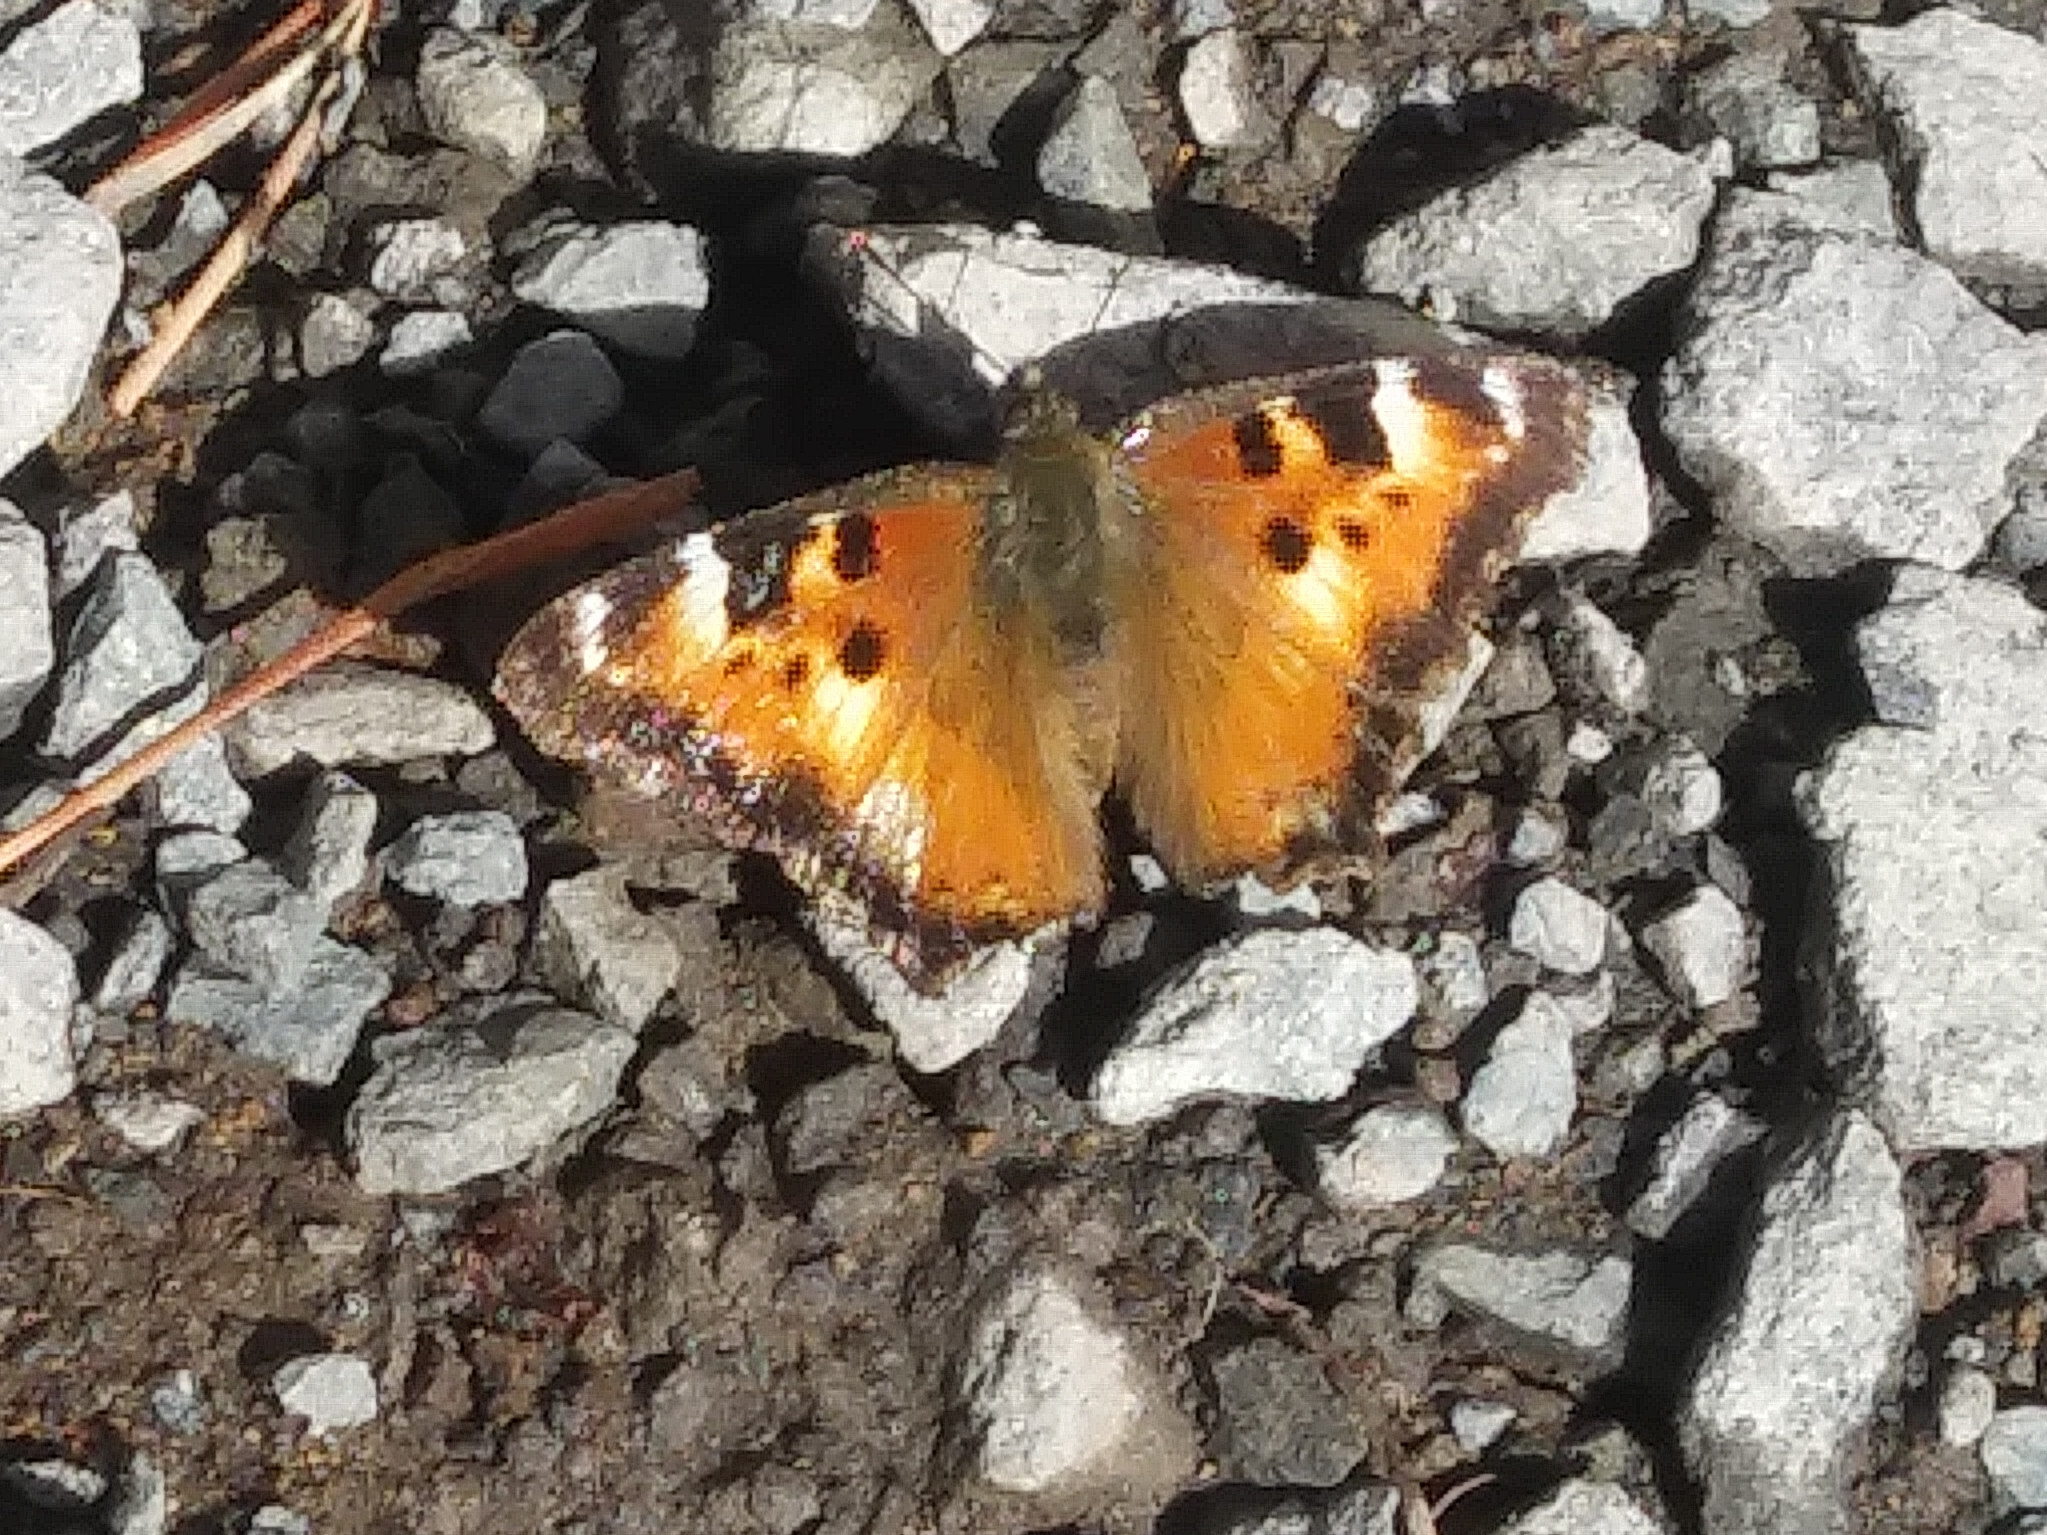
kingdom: Animalia
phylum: Arthropoda
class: Insecta
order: Lepidoptera
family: Nymphalidae
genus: Nymphalis
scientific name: Nymphalis californica
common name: California tortoiseshell
